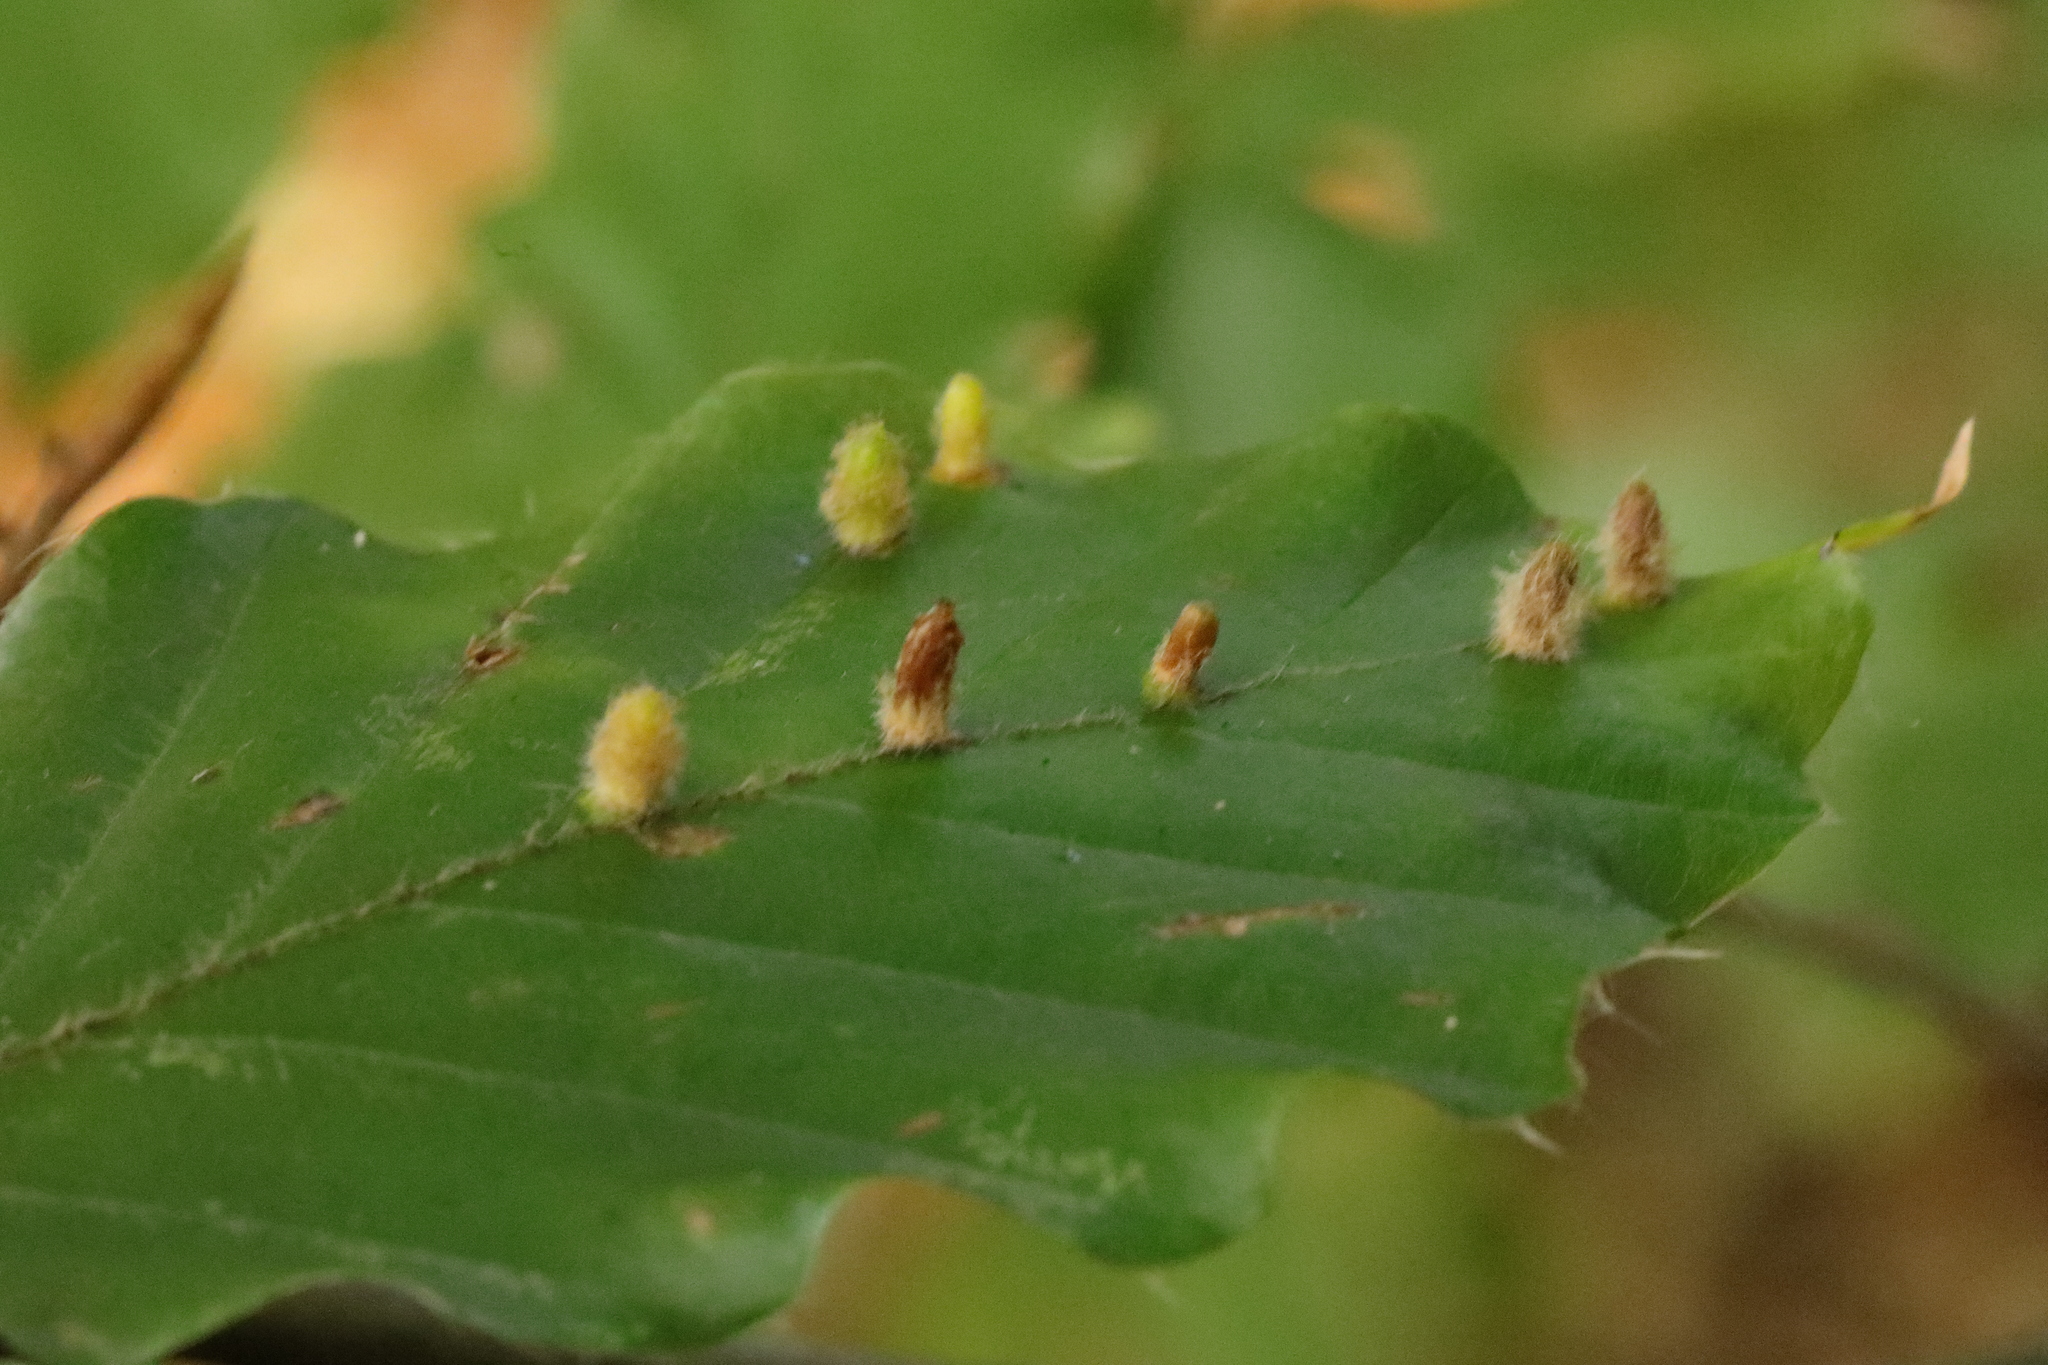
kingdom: Animalia
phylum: Arthropoda
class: Insecta
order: Diptera
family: Cecidomyiidae
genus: Hartigiola
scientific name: Hartigiola annulipes
